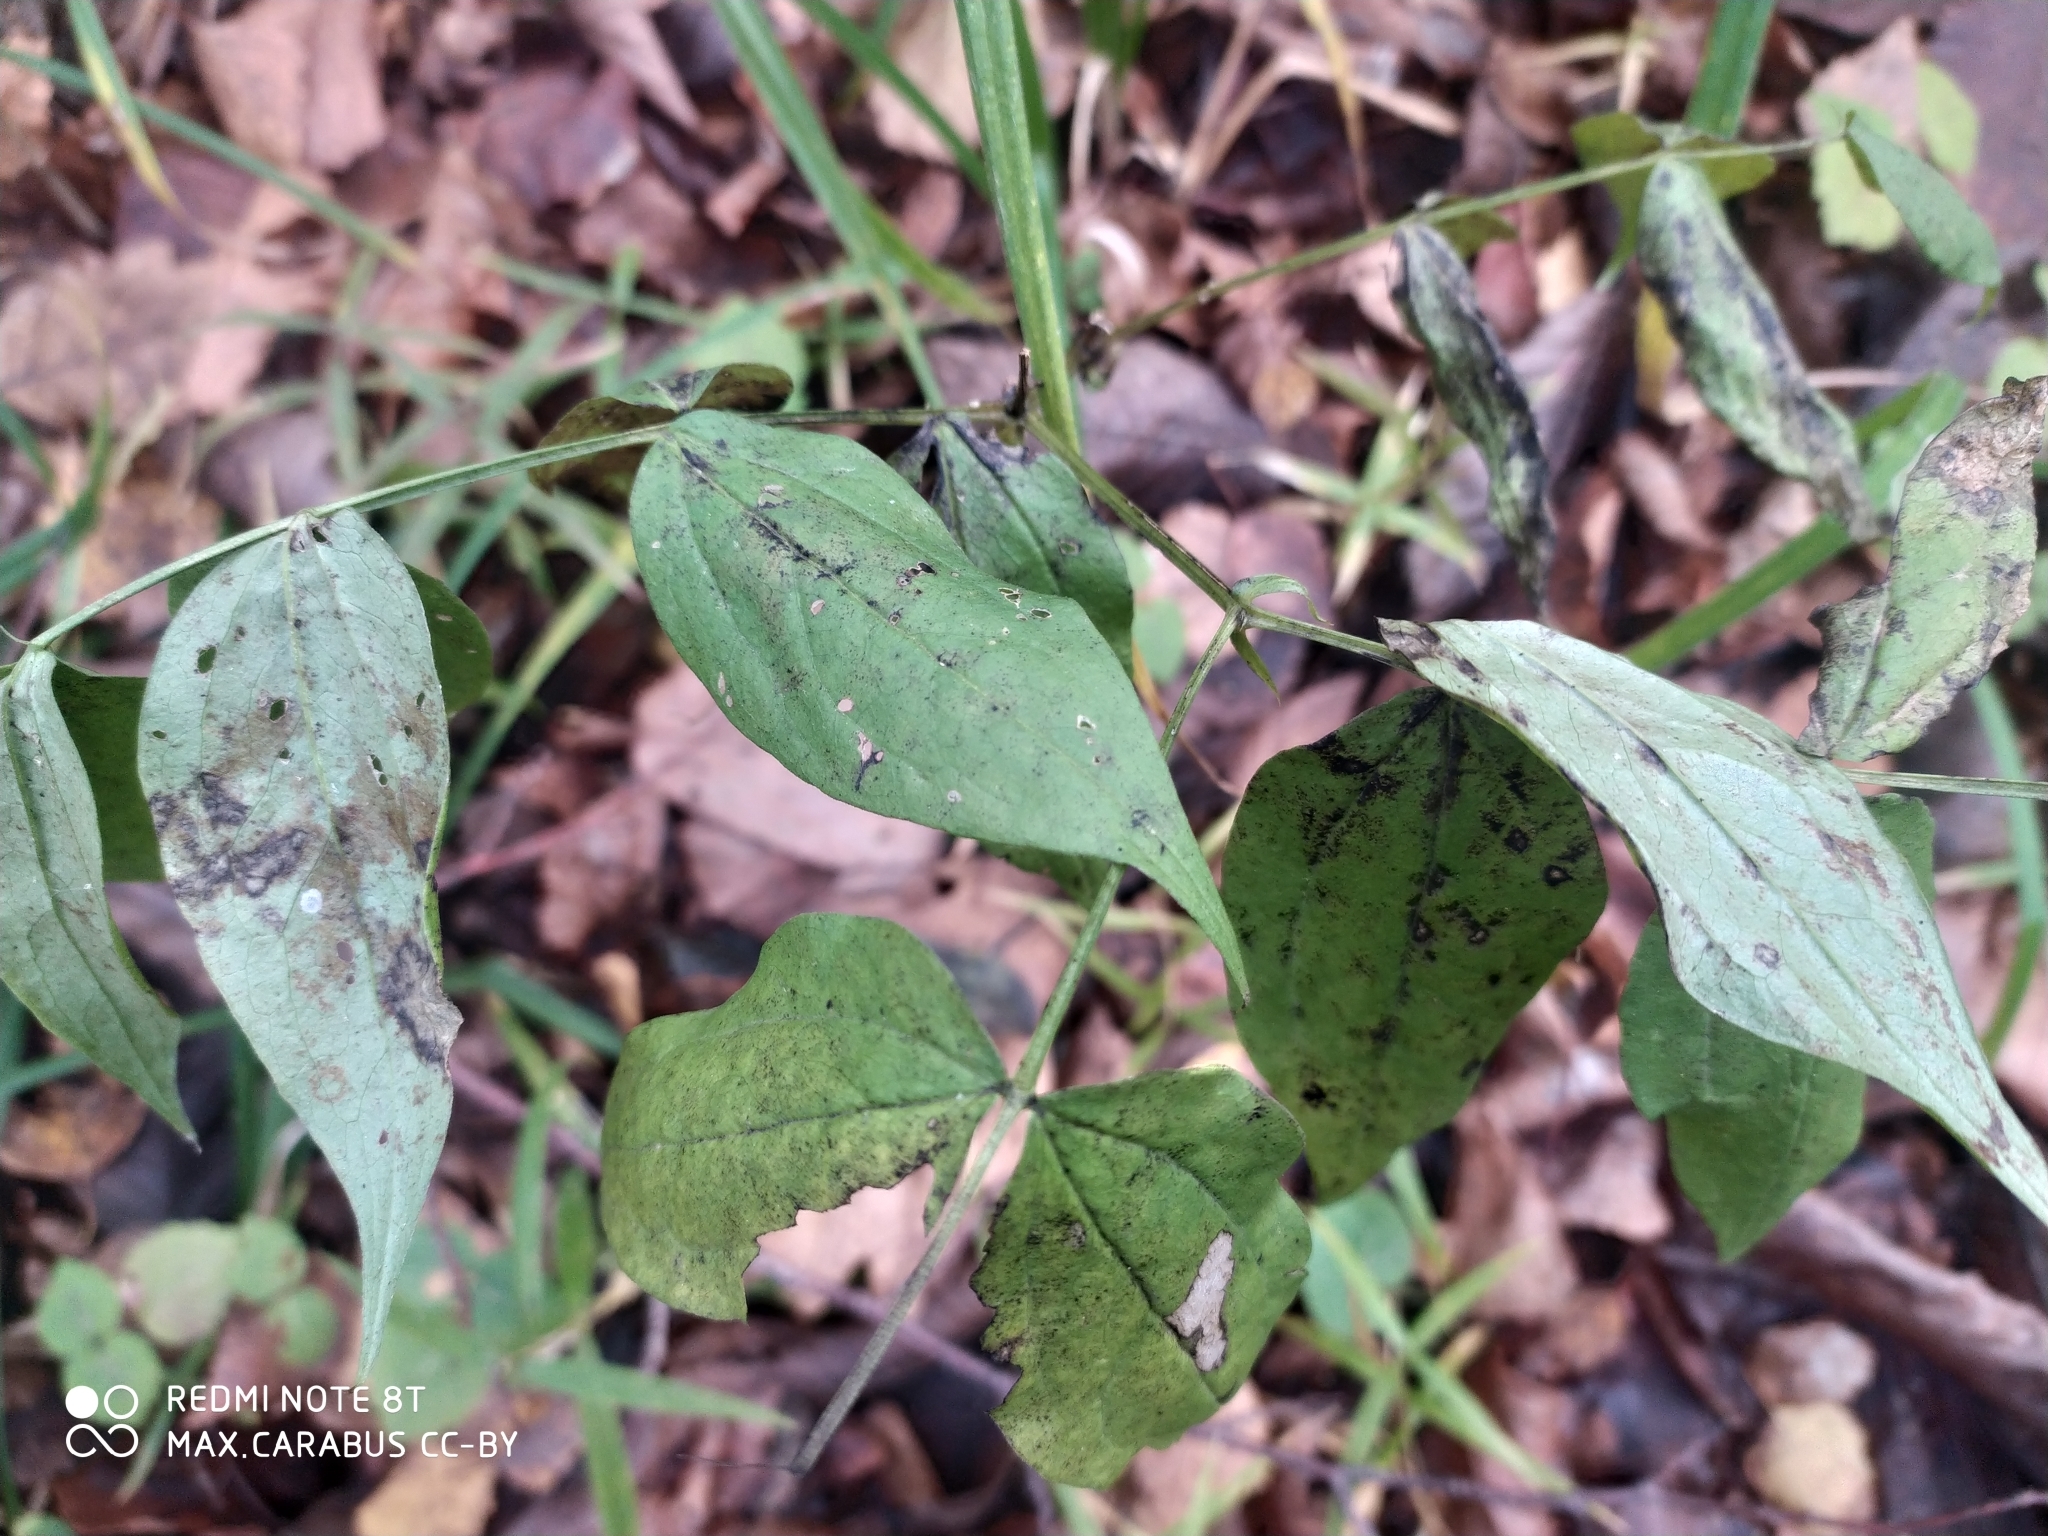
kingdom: Plantae
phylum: Tracheophyta
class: Magnoliopsida
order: Fabales
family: Fabaceae
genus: Lathyrus
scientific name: Lathyrus vernus
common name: Spring pea
